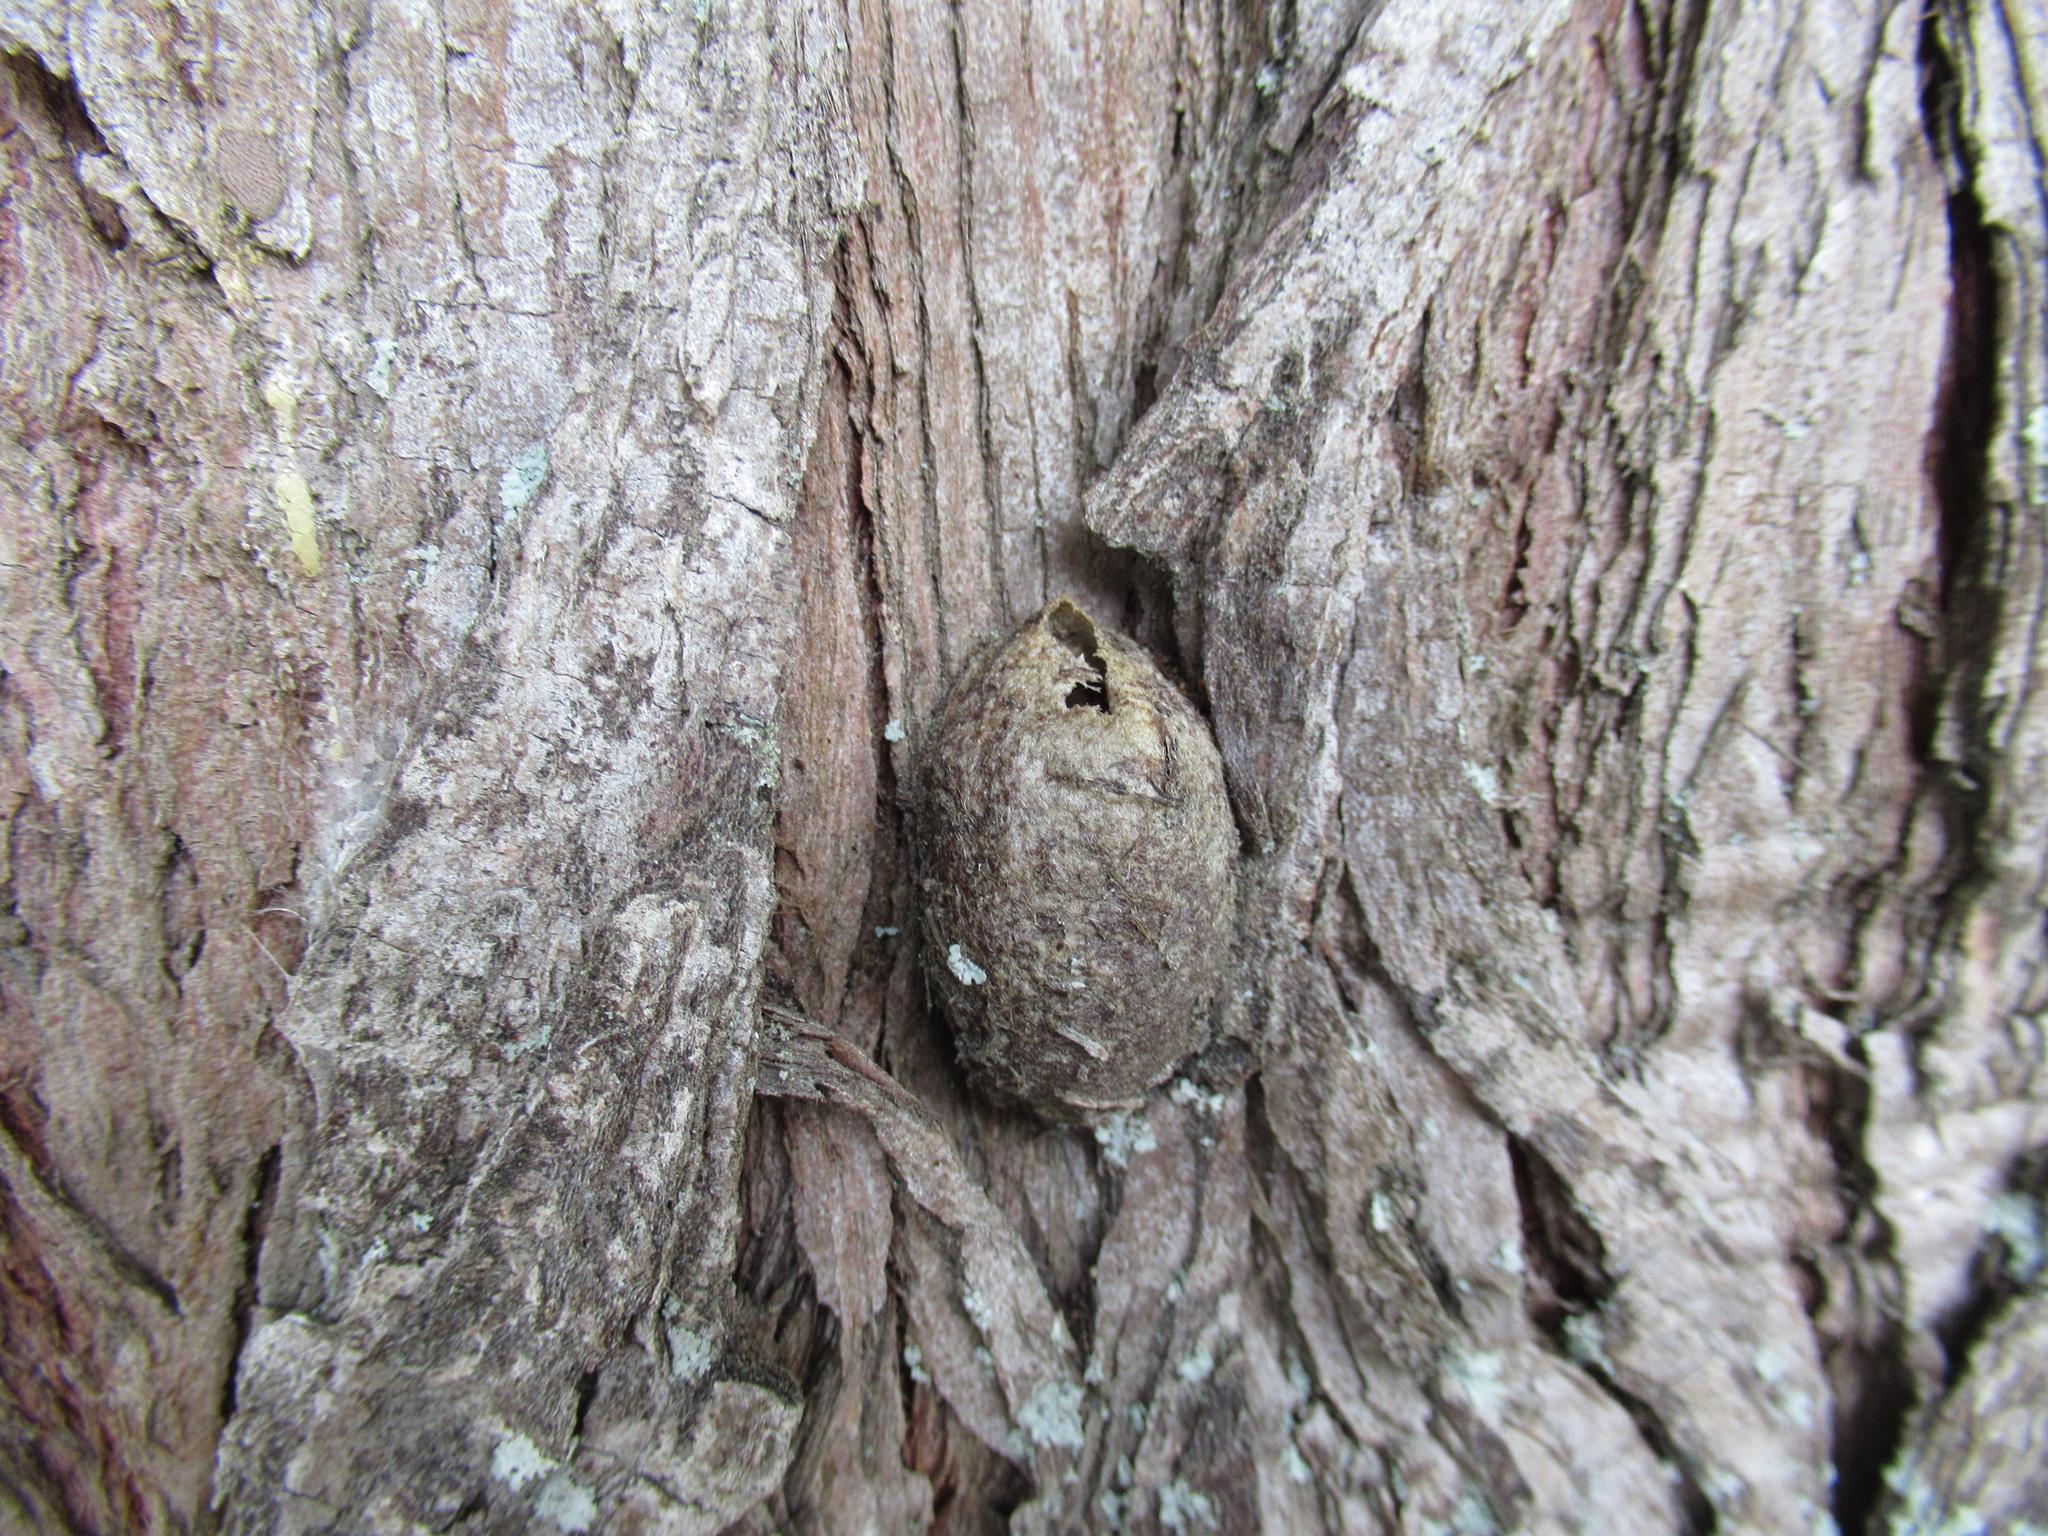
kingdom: Animalia
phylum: Arthropoda
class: Insecta
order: Lepidoptera
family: Saturniidae
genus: Opodiphthera
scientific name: Opodiphthera
